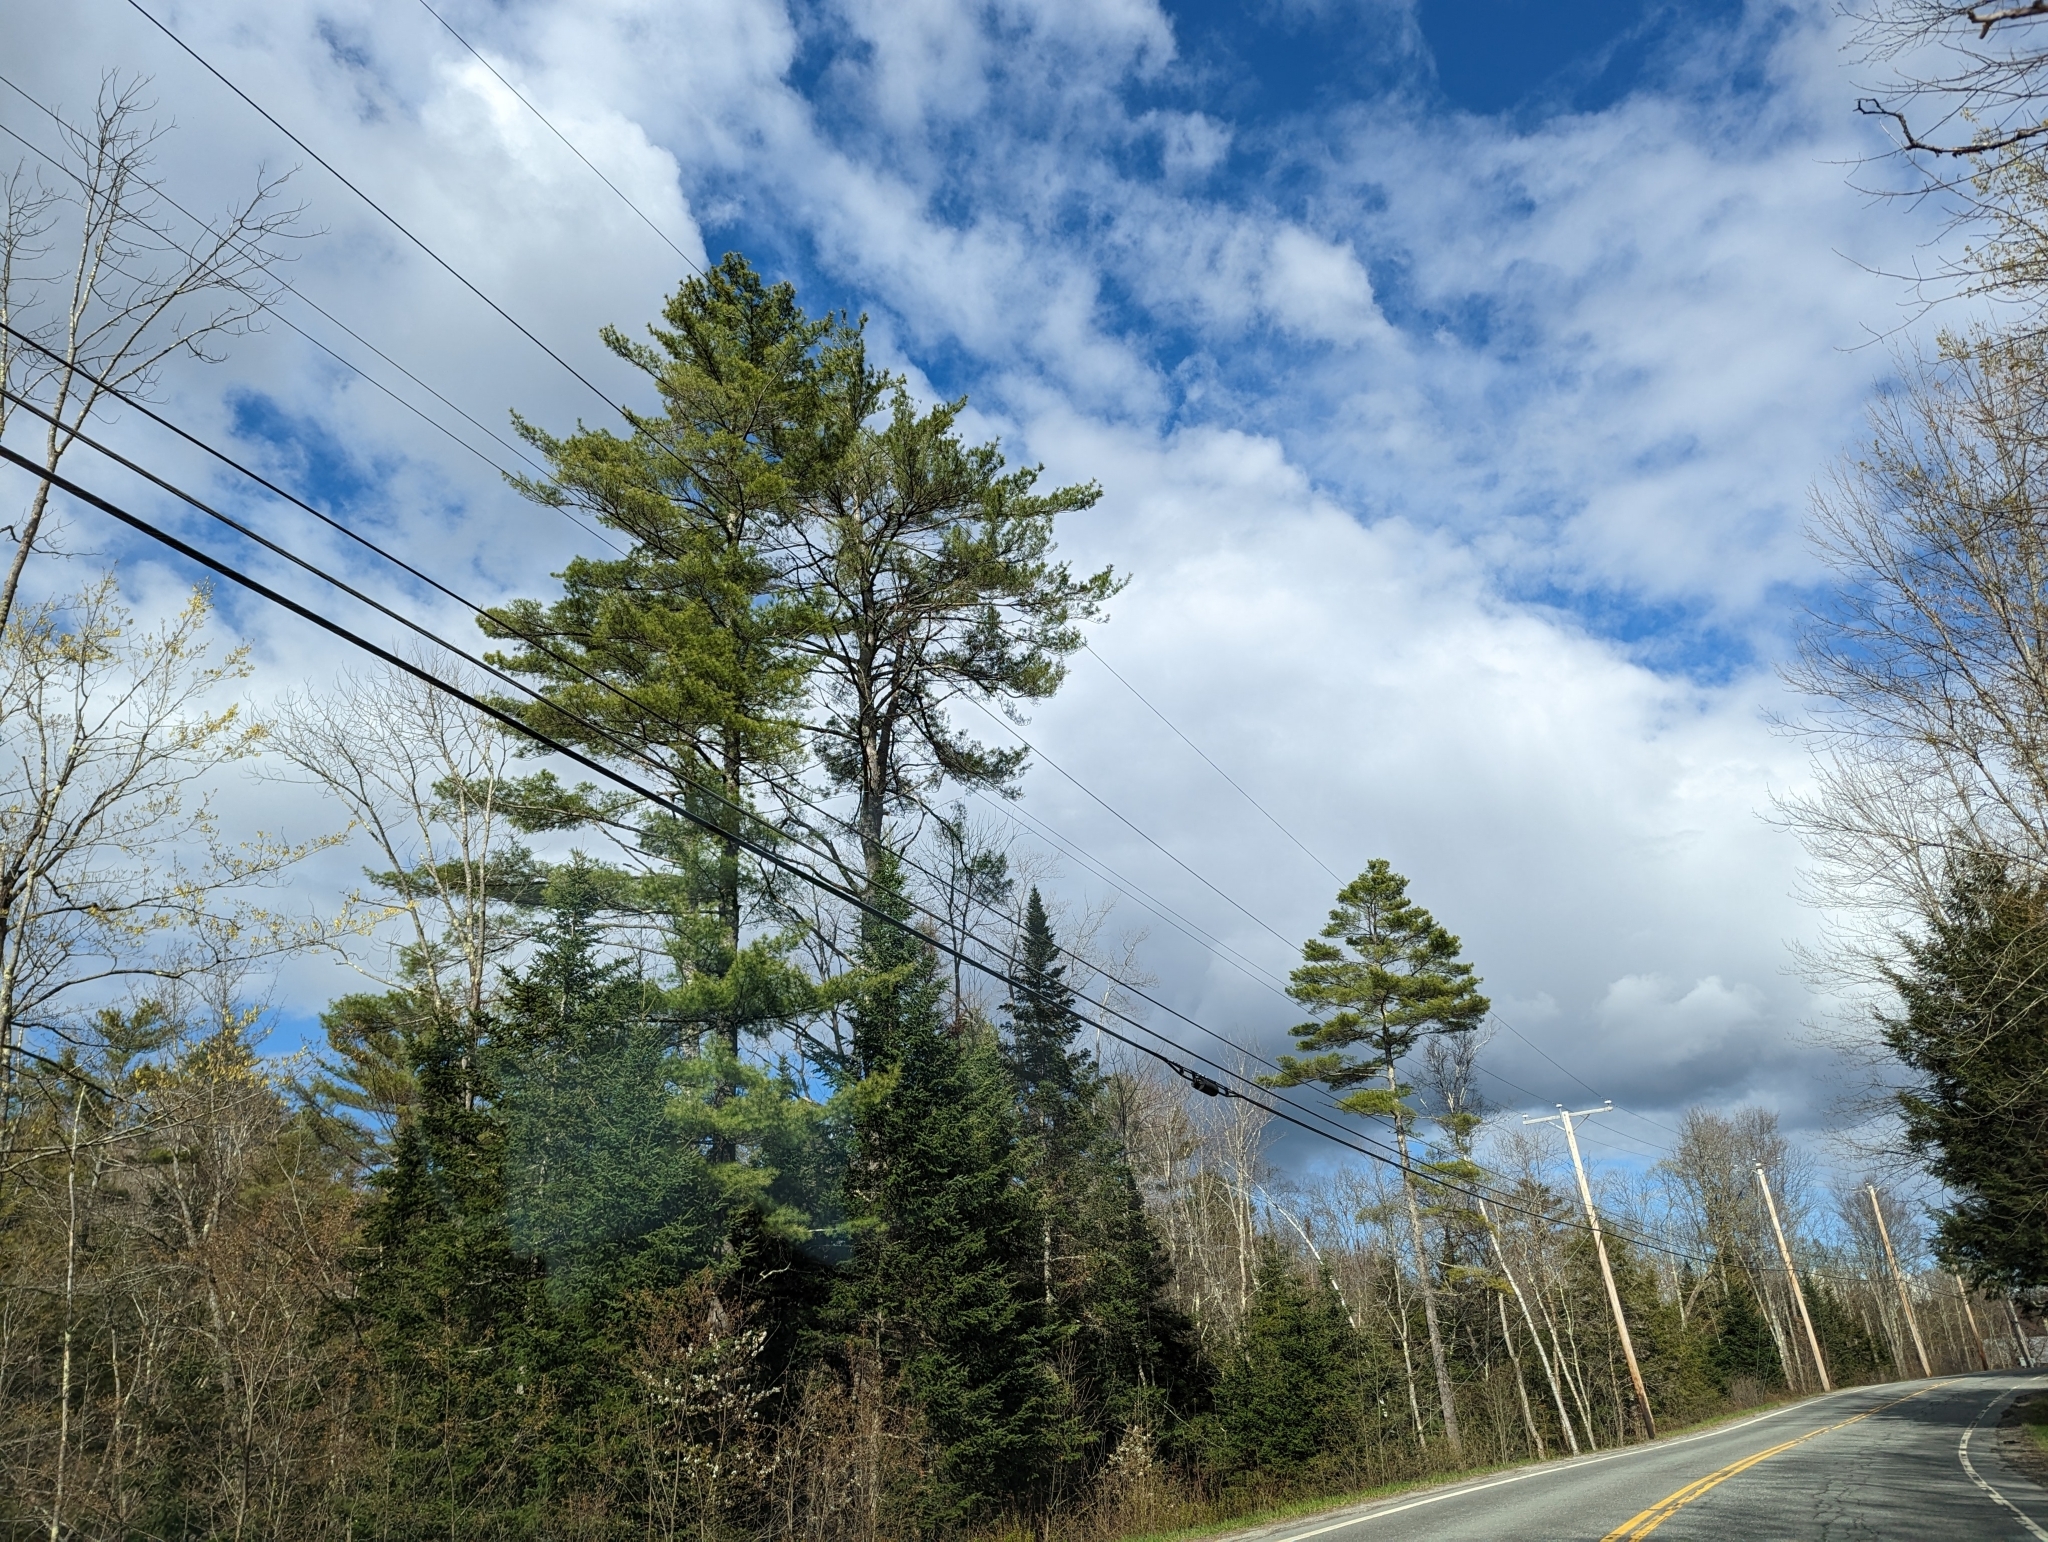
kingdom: Plantae
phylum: Tracheophyta
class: Pinopsida
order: Pinales
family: Pinaceae
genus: Pinus
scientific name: Pinus strobus
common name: Weymouth pine
